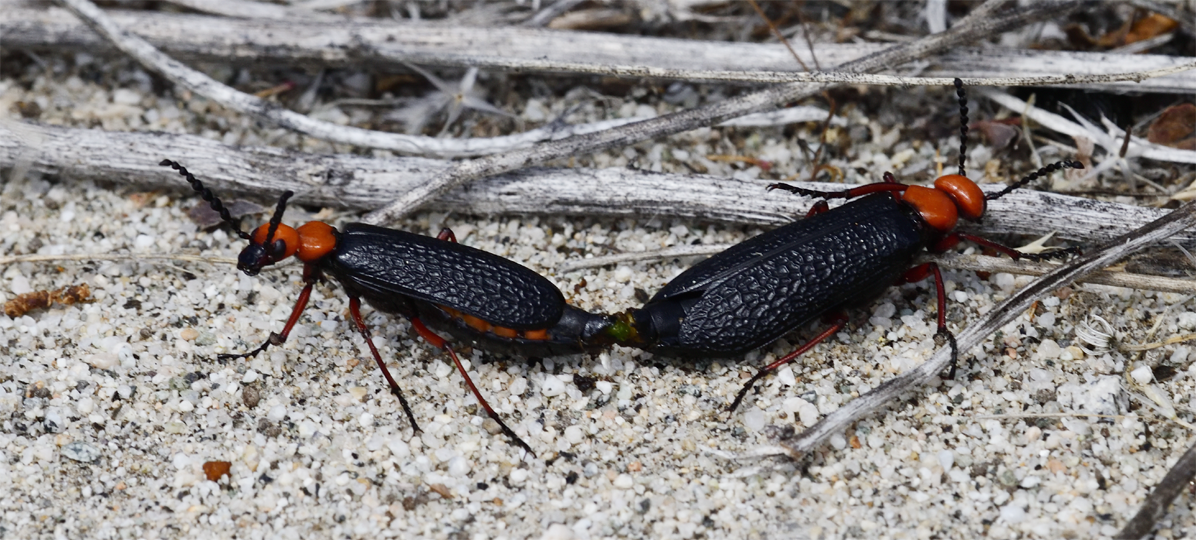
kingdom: Animalia
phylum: Arthropoda
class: Insecta
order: Coleoptera
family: Meloidae
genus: Lytta
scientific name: Lytta magister
